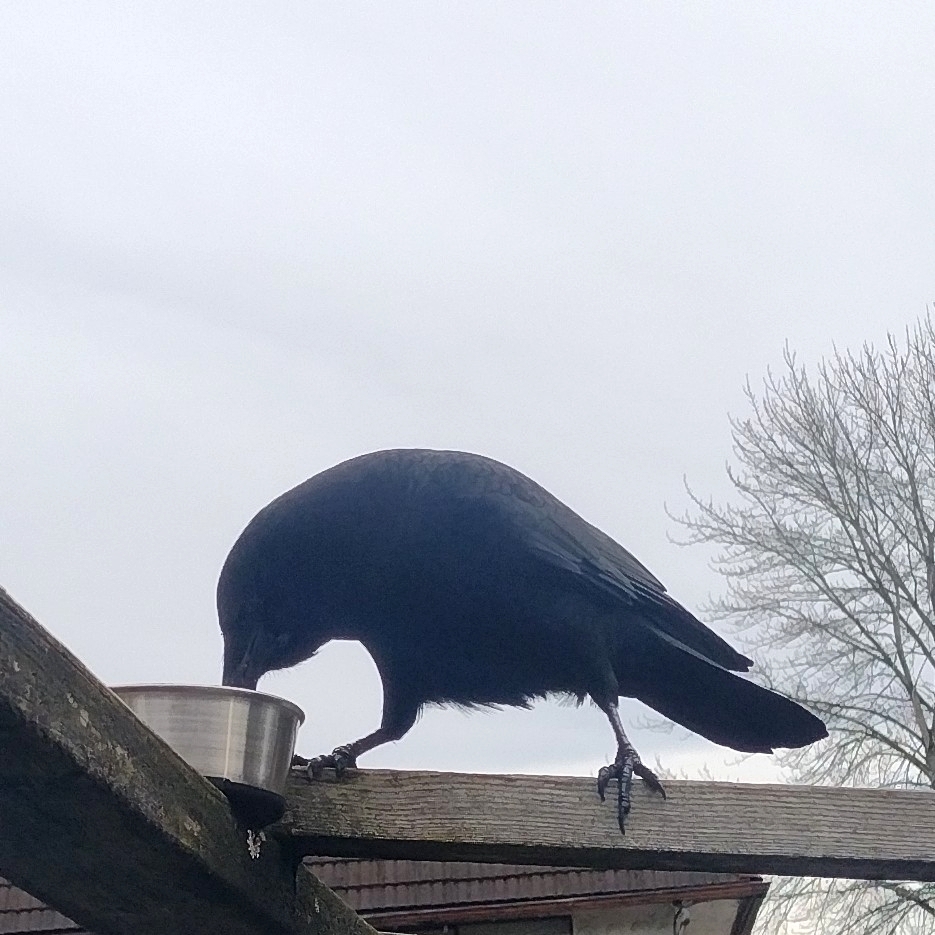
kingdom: Animalia
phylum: Chordata
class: Aves
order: Passeriformes
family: Corvidae
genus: Corvus
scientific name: Corvus brachyrhynchos
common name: American crow
